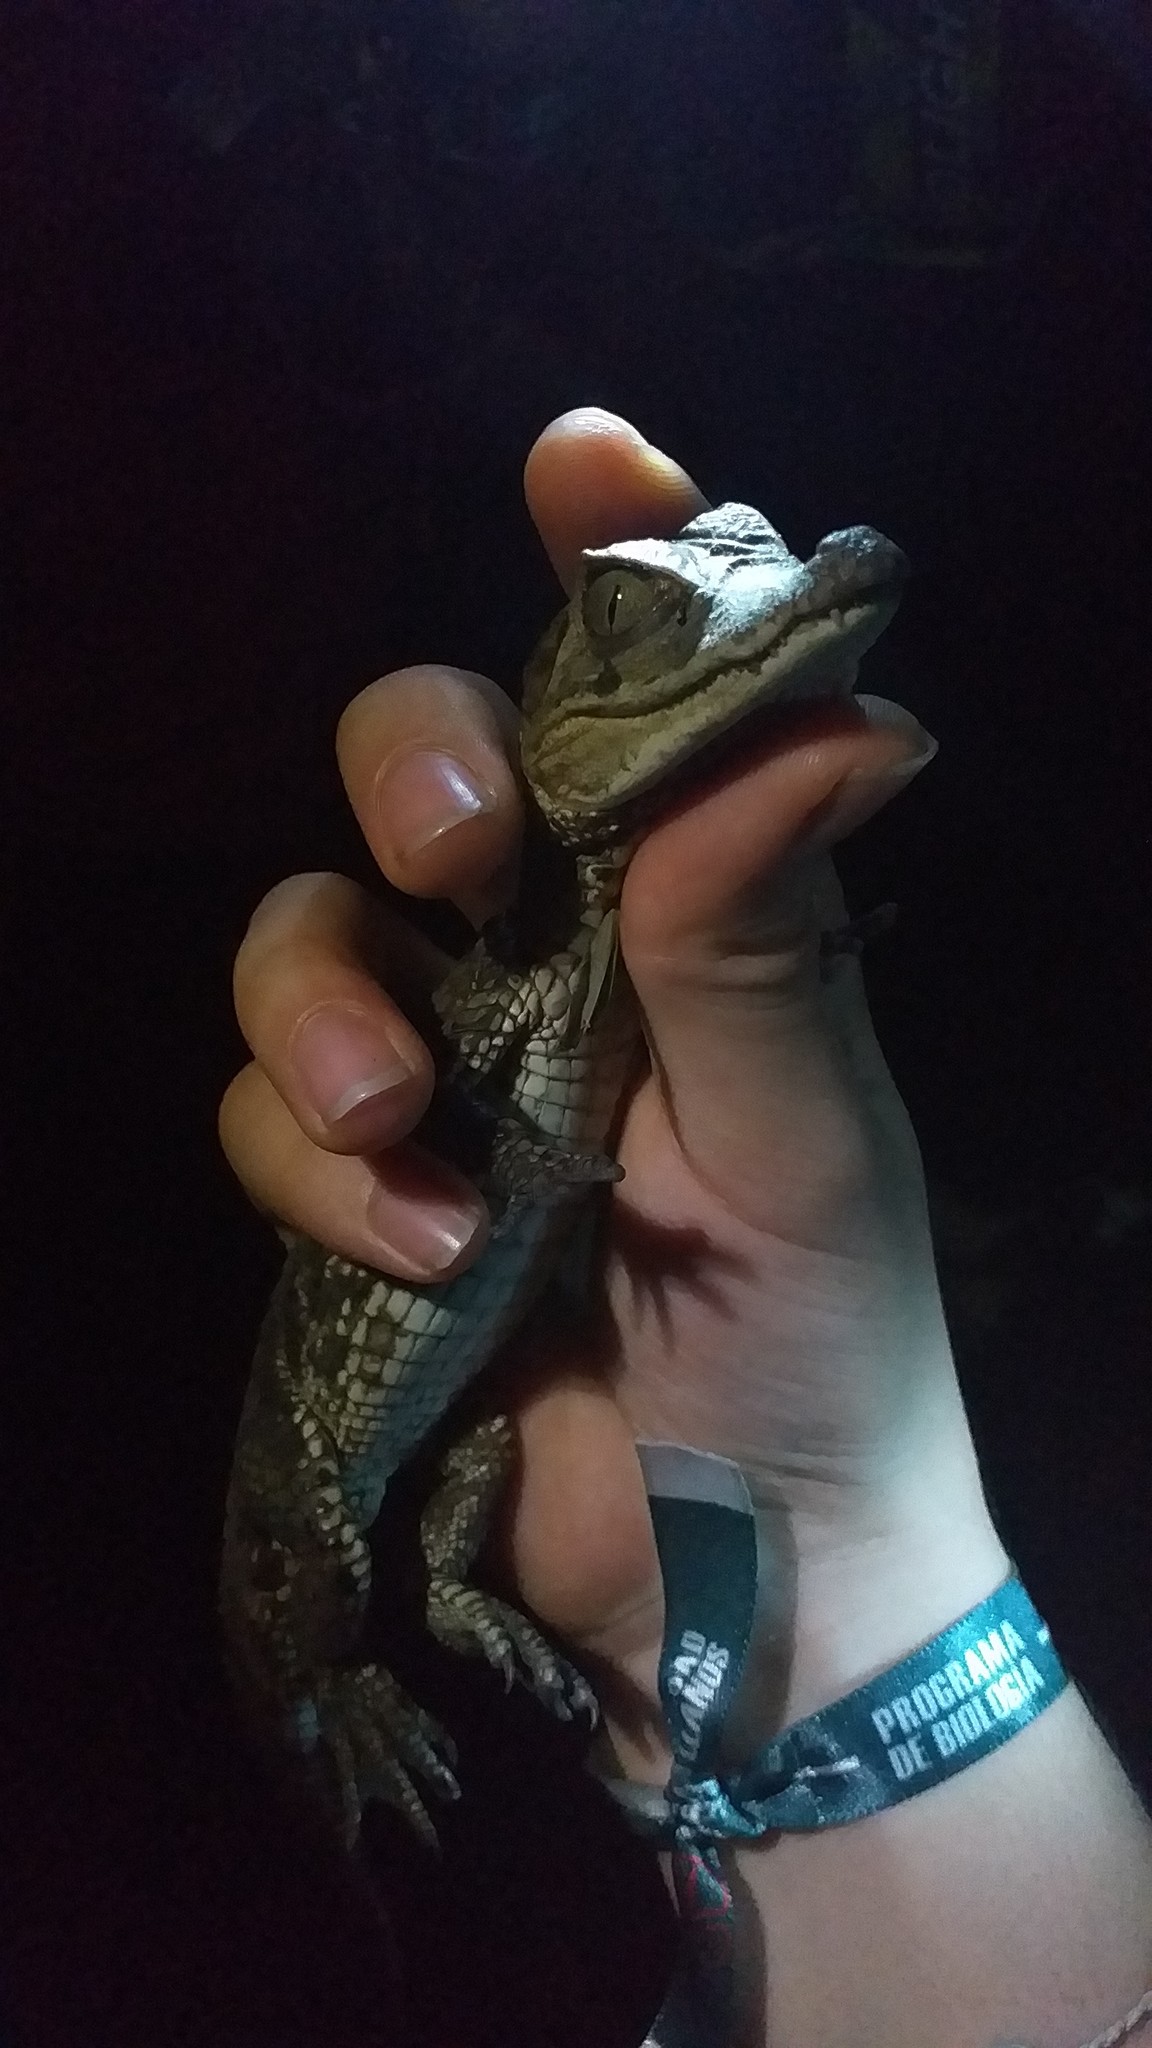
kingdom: Animalia
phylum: Chordata
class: Crocodylia
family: Alligatoridae
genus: Caiman
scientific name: Caiman crocodilus
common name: Common caiman
